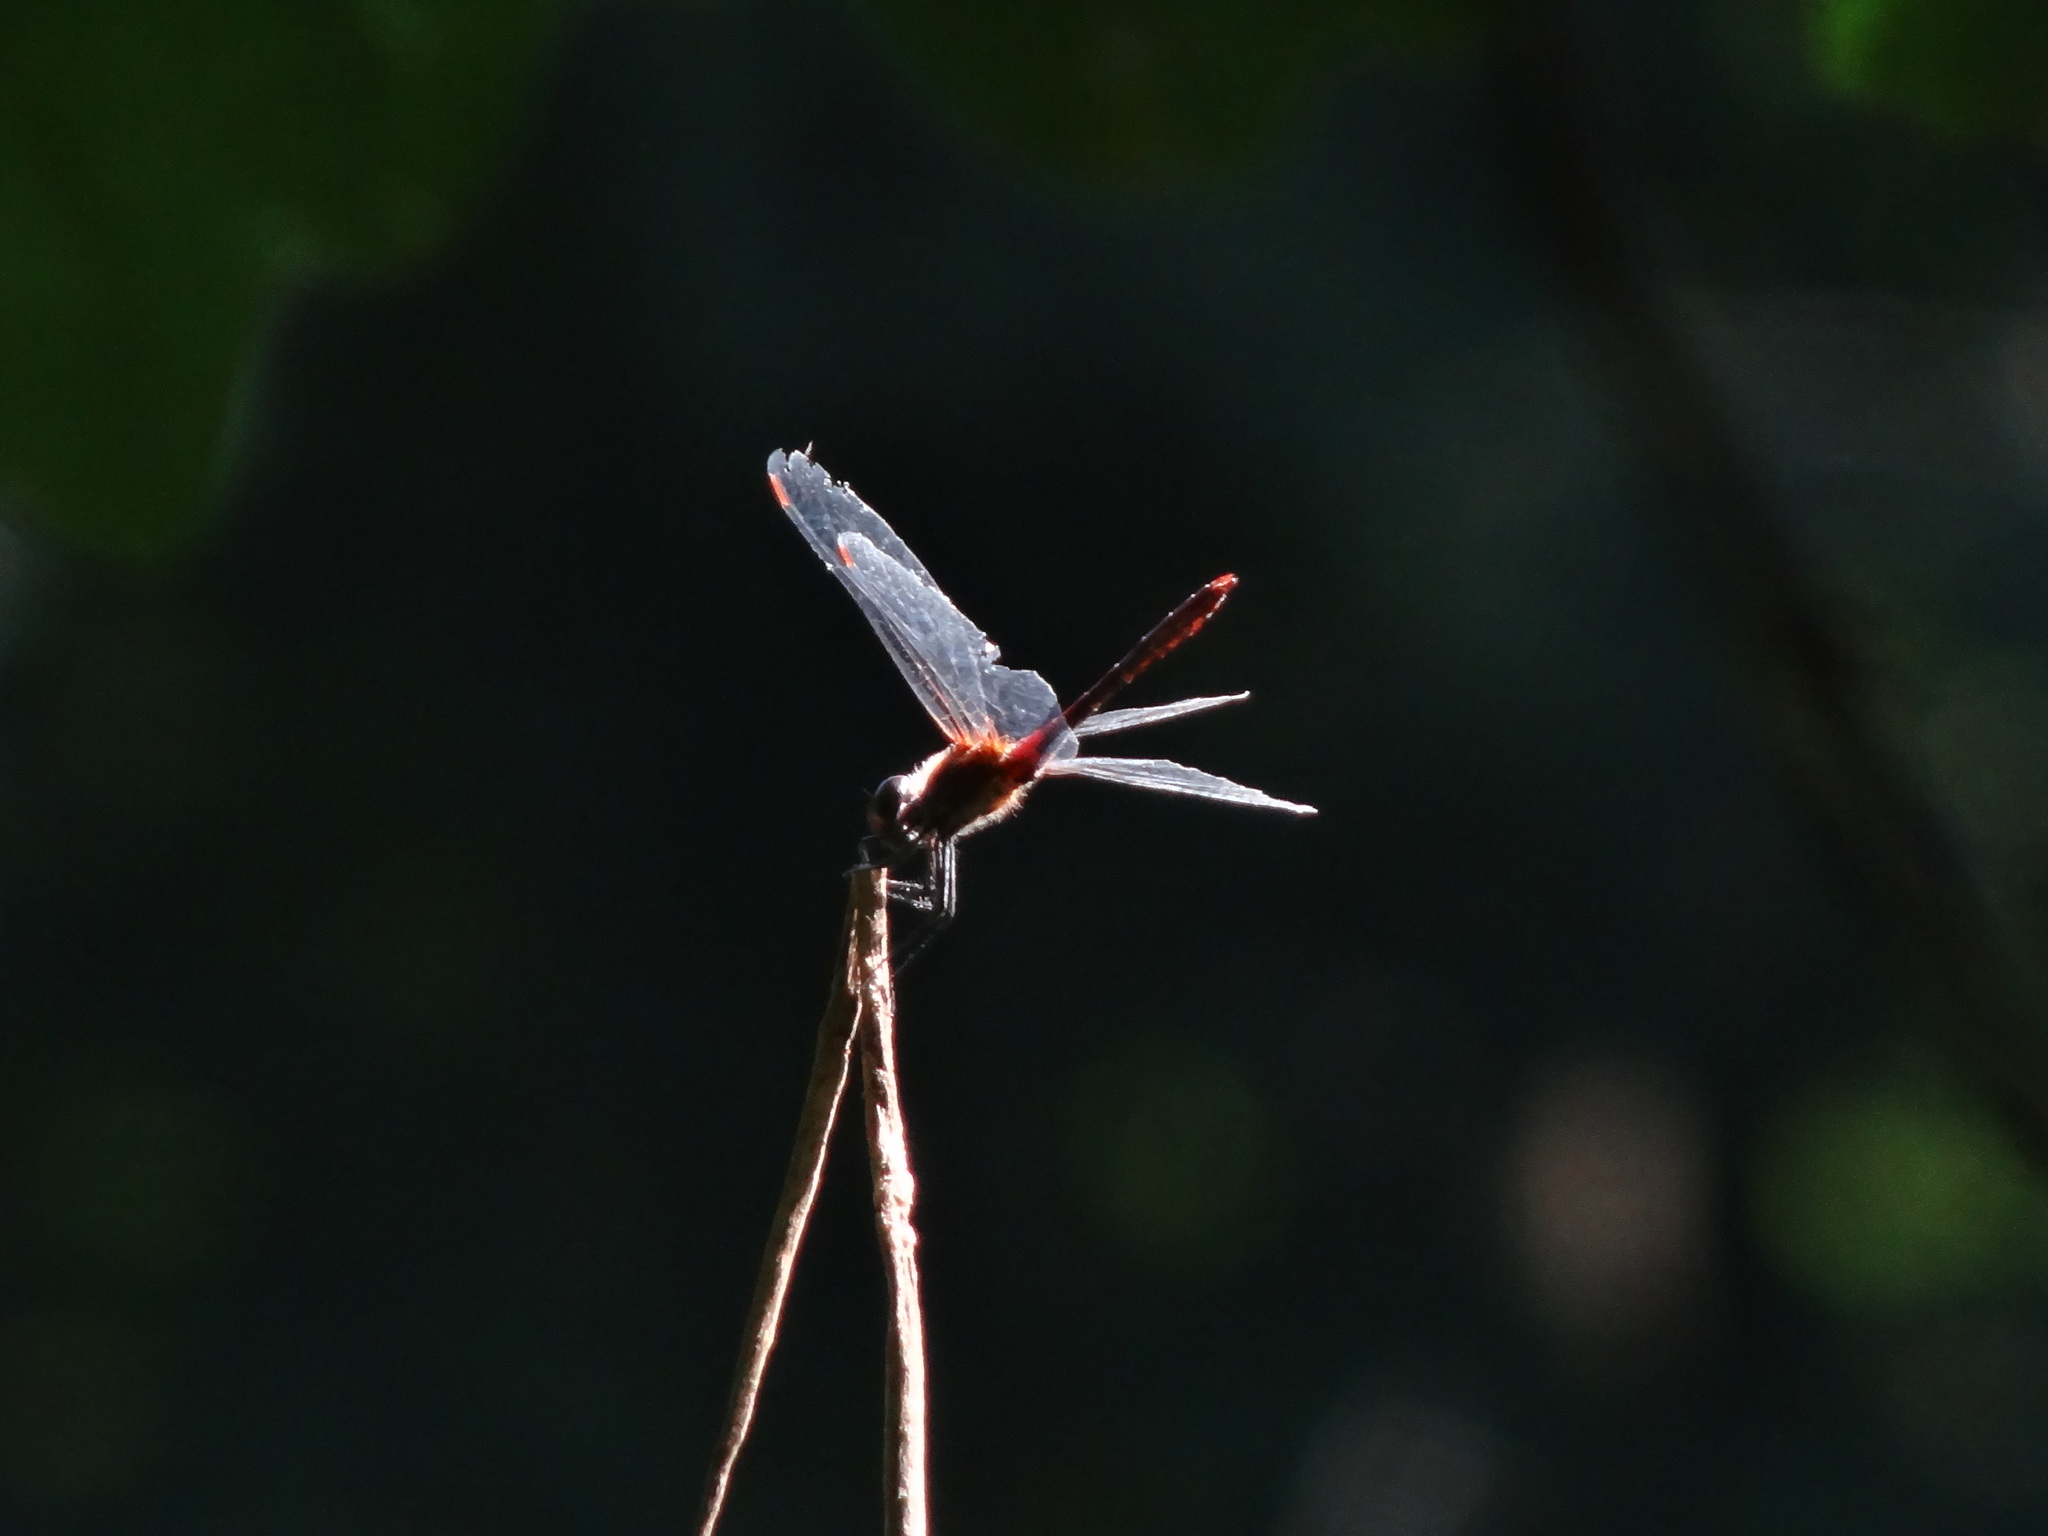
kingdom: Animalia
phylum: Arthropoda
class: Insecta
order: Odonata
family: Libellulidae
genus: Sympetrum
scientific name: Sympetrum sanguineum
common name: Ruddy darter
